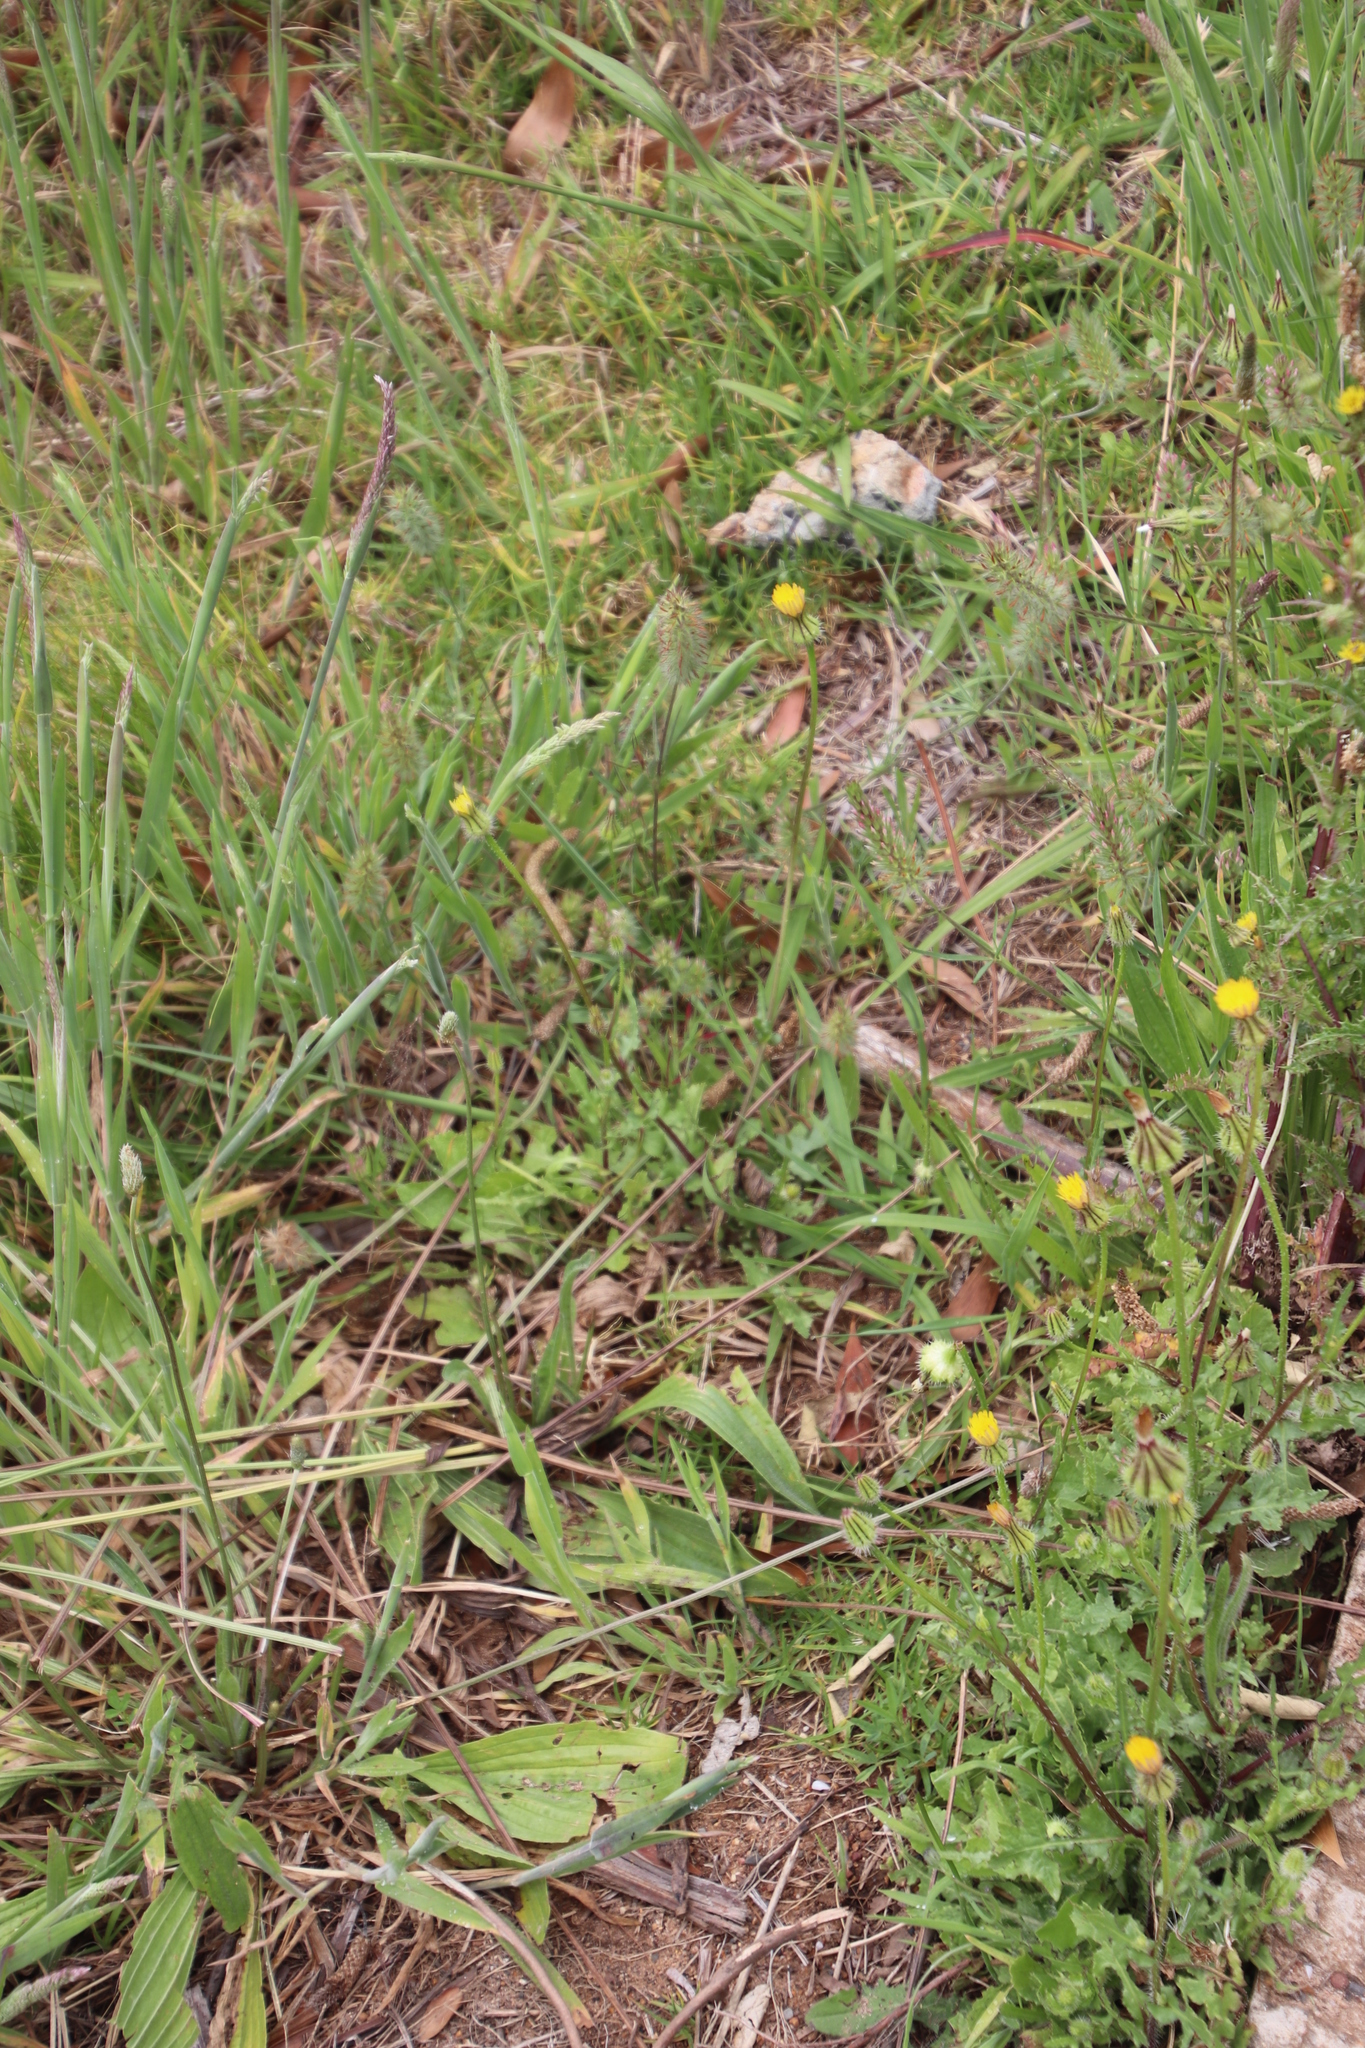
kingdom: Plantae
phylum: Tracheophyta
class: Magnoliopsida
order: Lamiales
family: Plantaginaceae
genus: Plantago
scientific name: Plantago lanceolata
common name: Ribwort plantain
